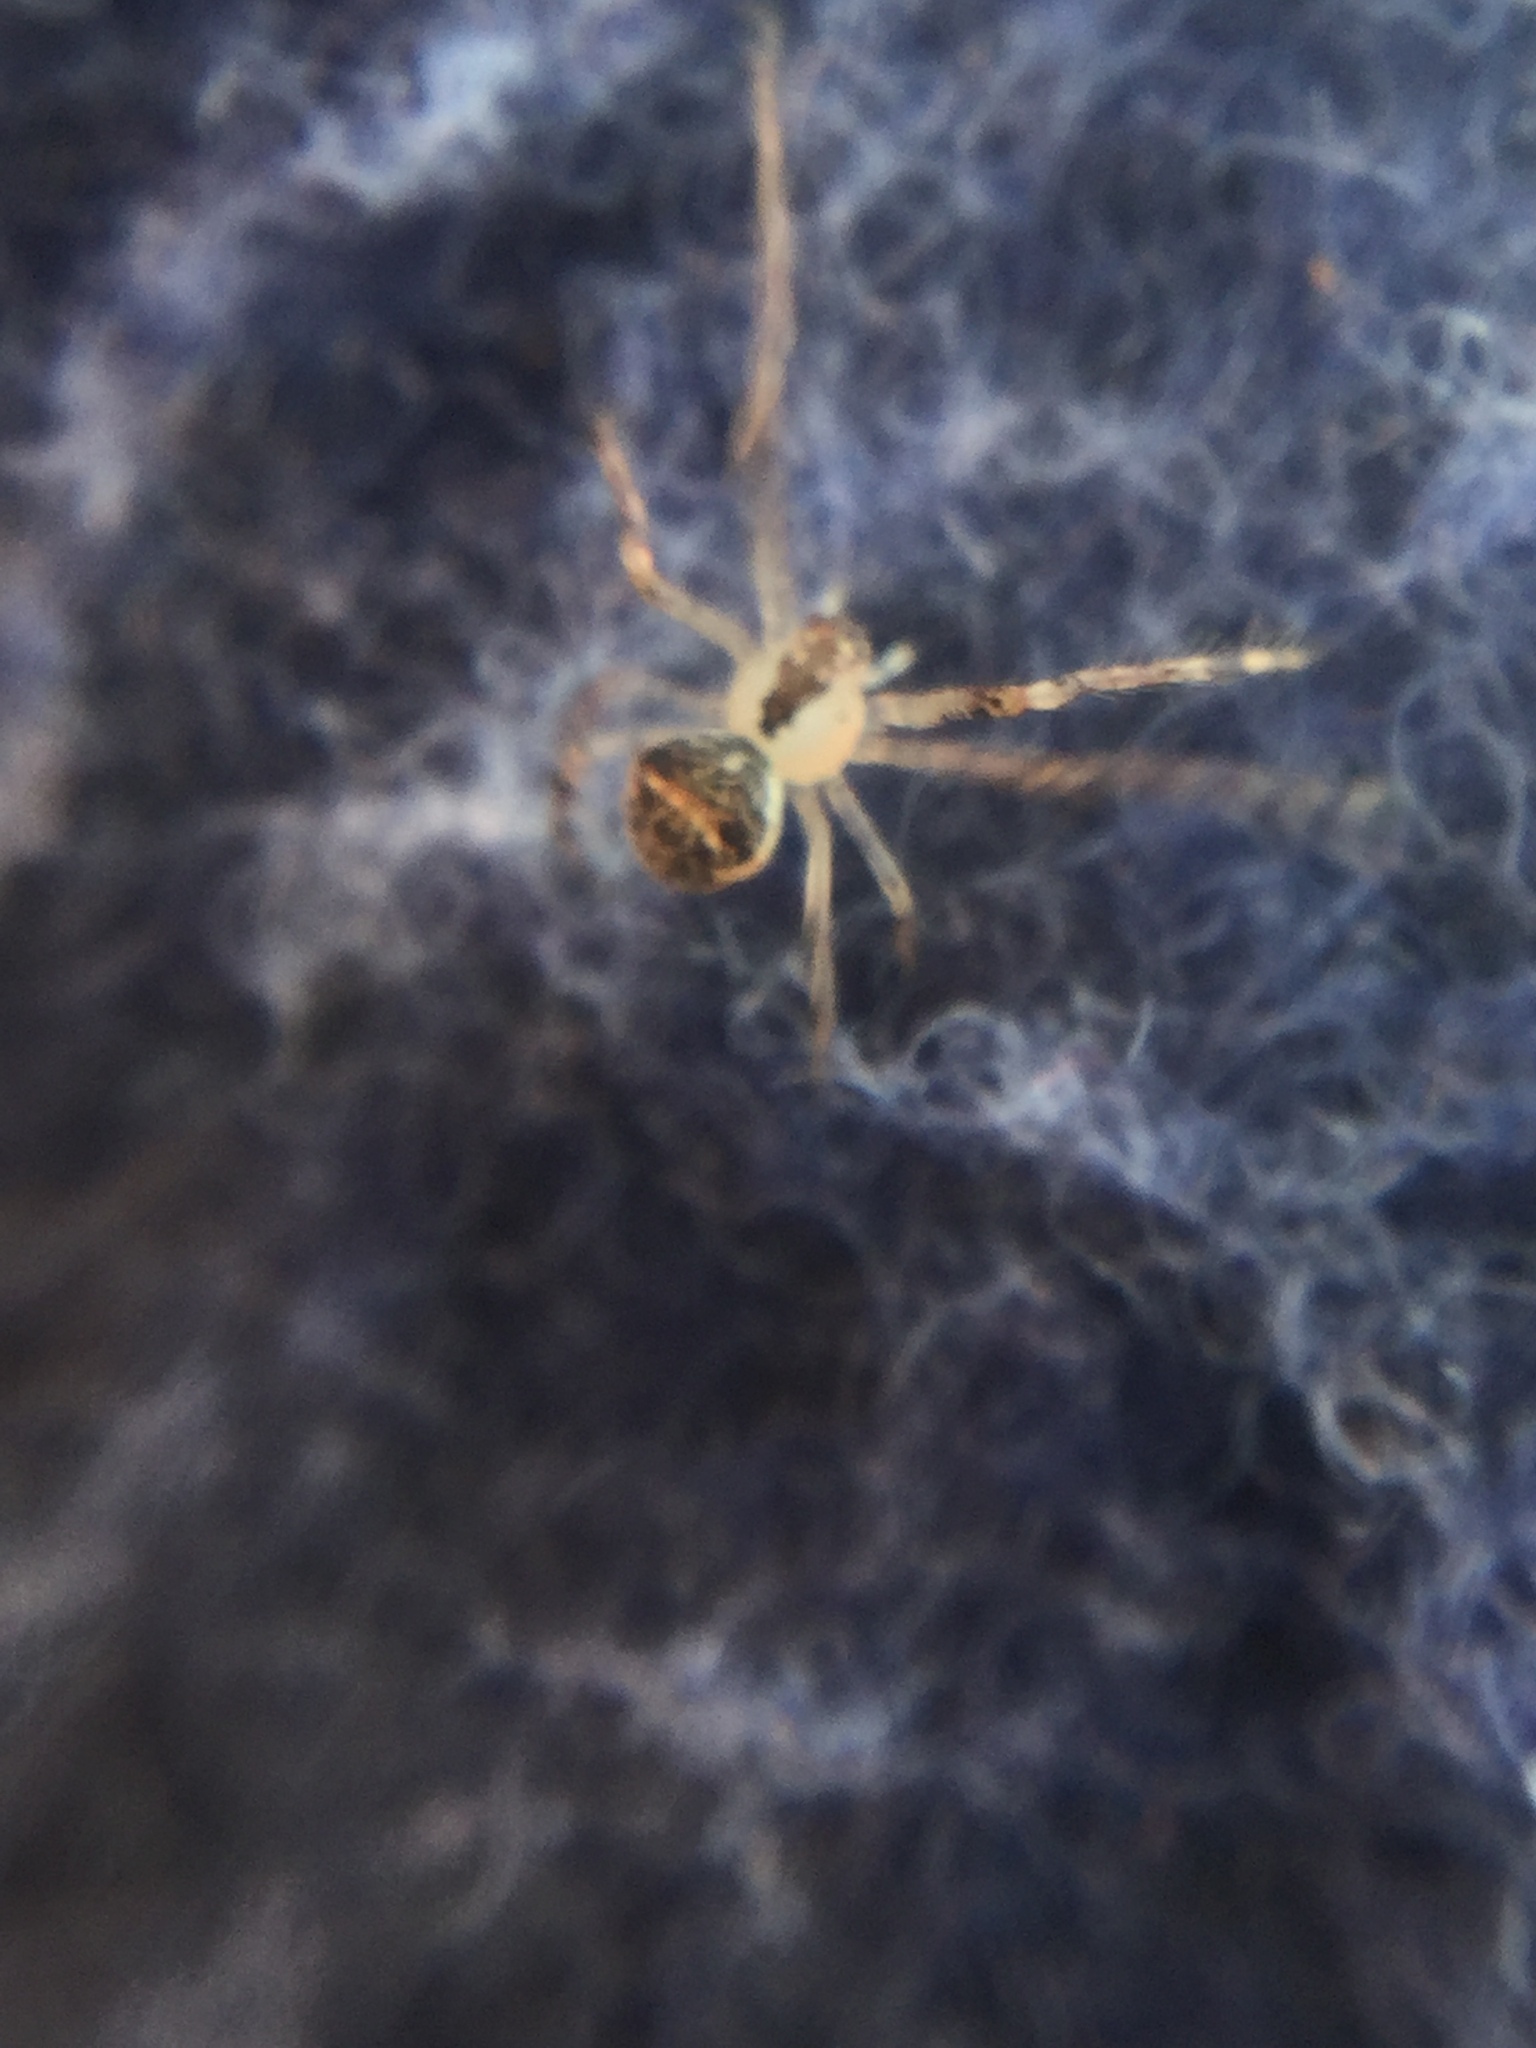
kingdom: Animalia
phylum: Arthropoda
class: Arachnida
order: Araneae
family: Mimetidae
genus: Mimetus
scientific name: Mimetus puritanus
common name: Common pirate spider
